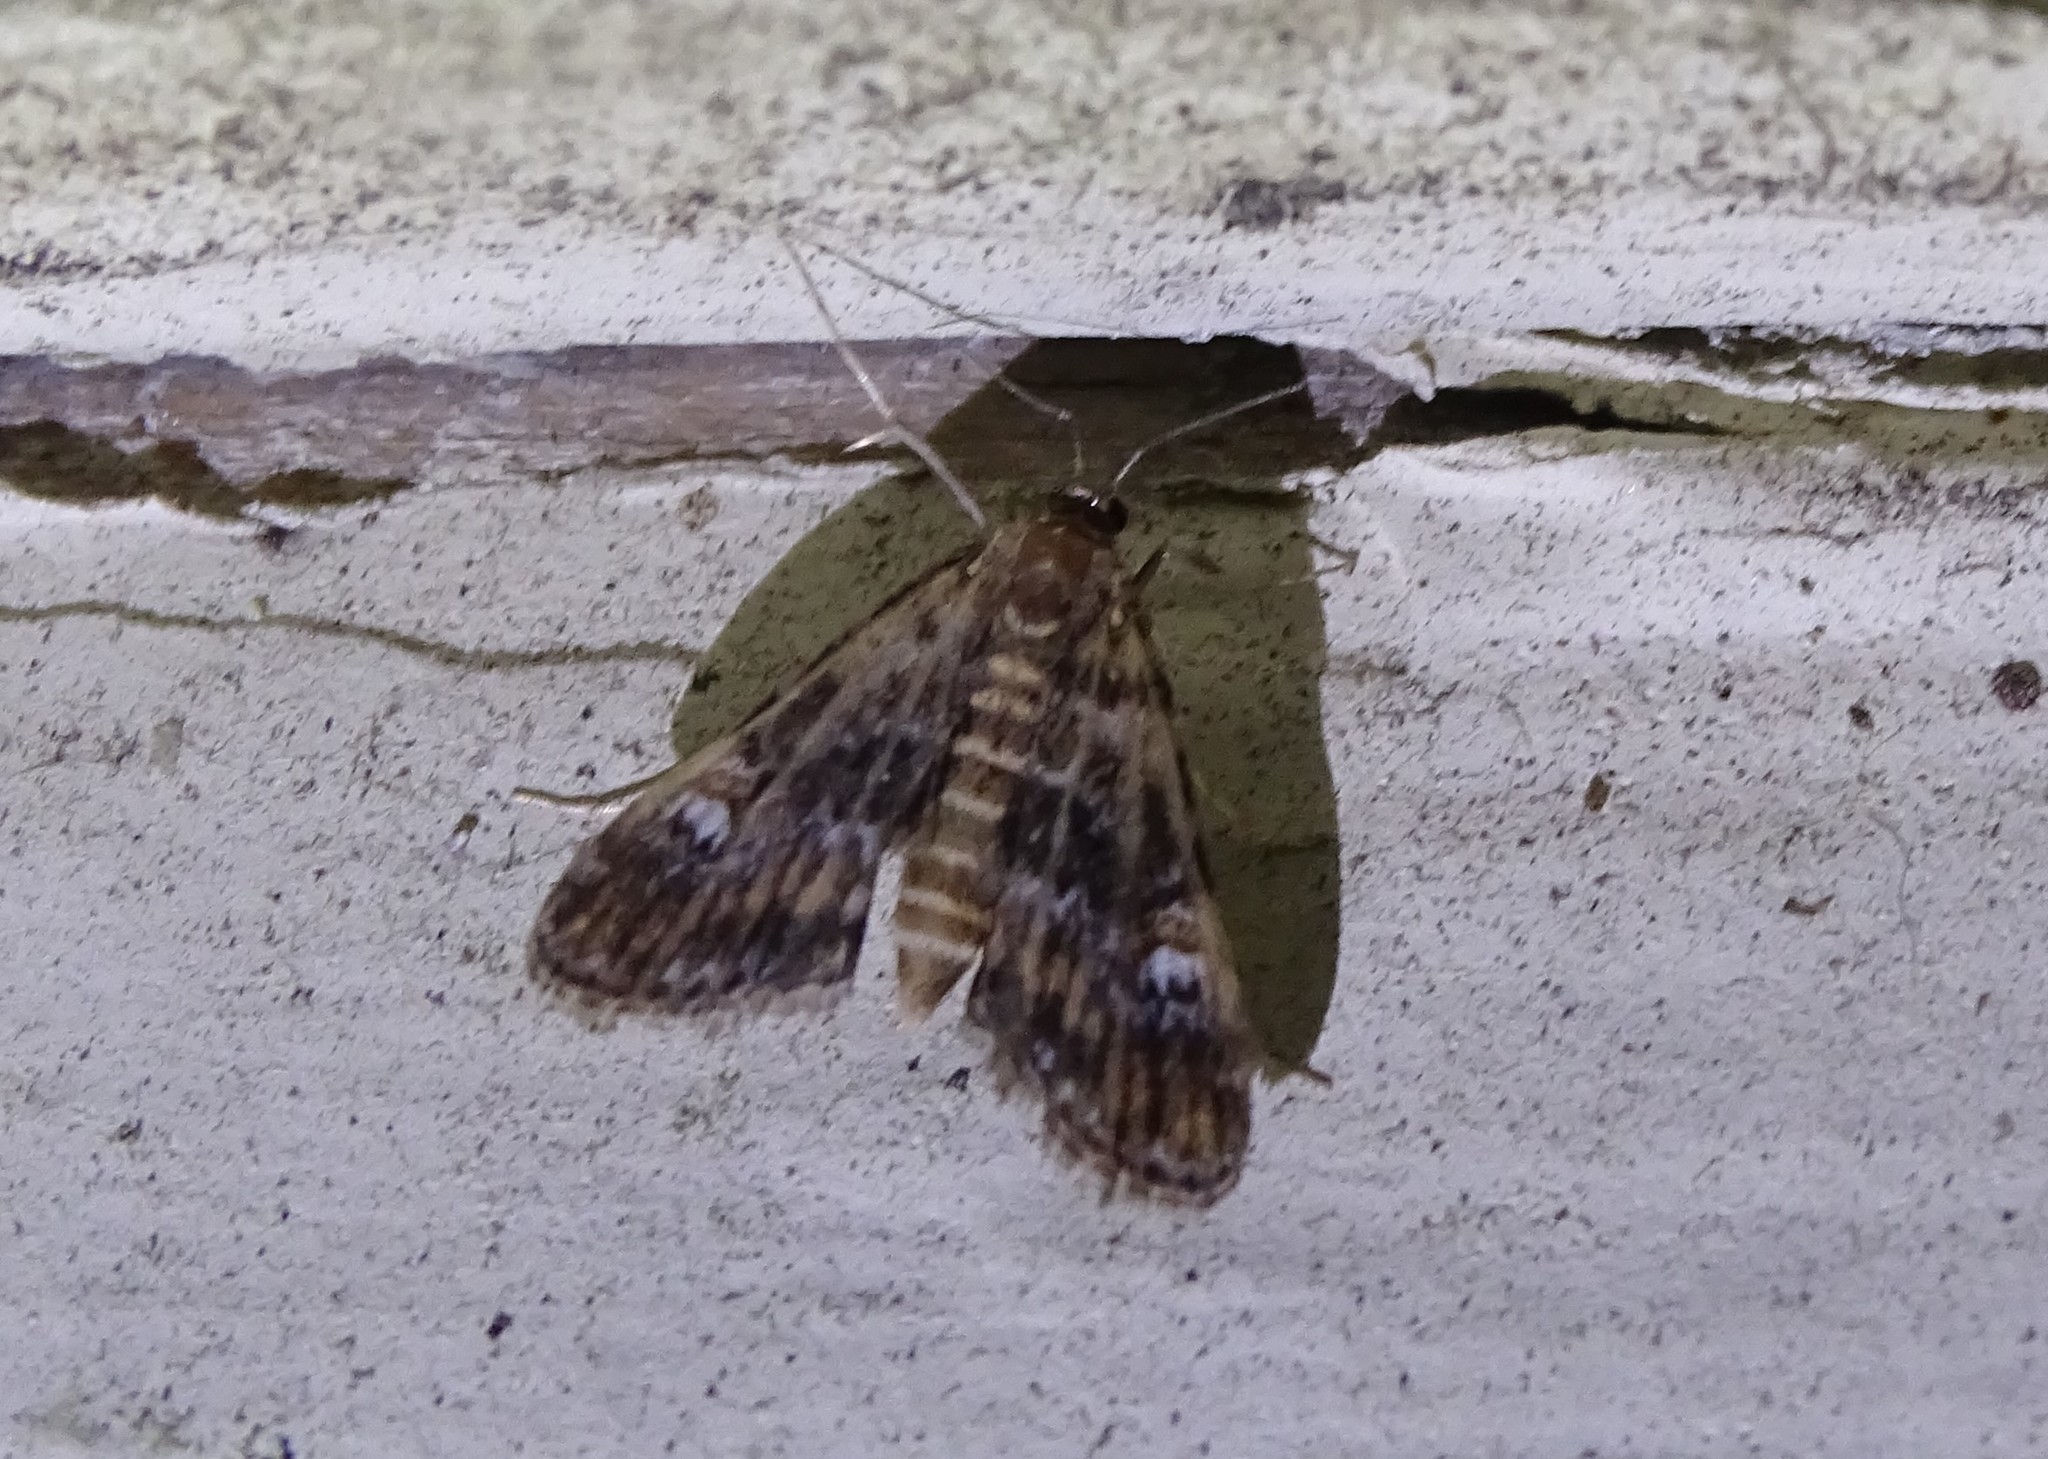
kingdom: Animalia
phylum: Arthropoda
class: Insecta
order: Lepidoptera
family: Crambidae
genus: Elophila
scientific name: Elophila obliteralis
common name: Waterlily leafcutter moth
